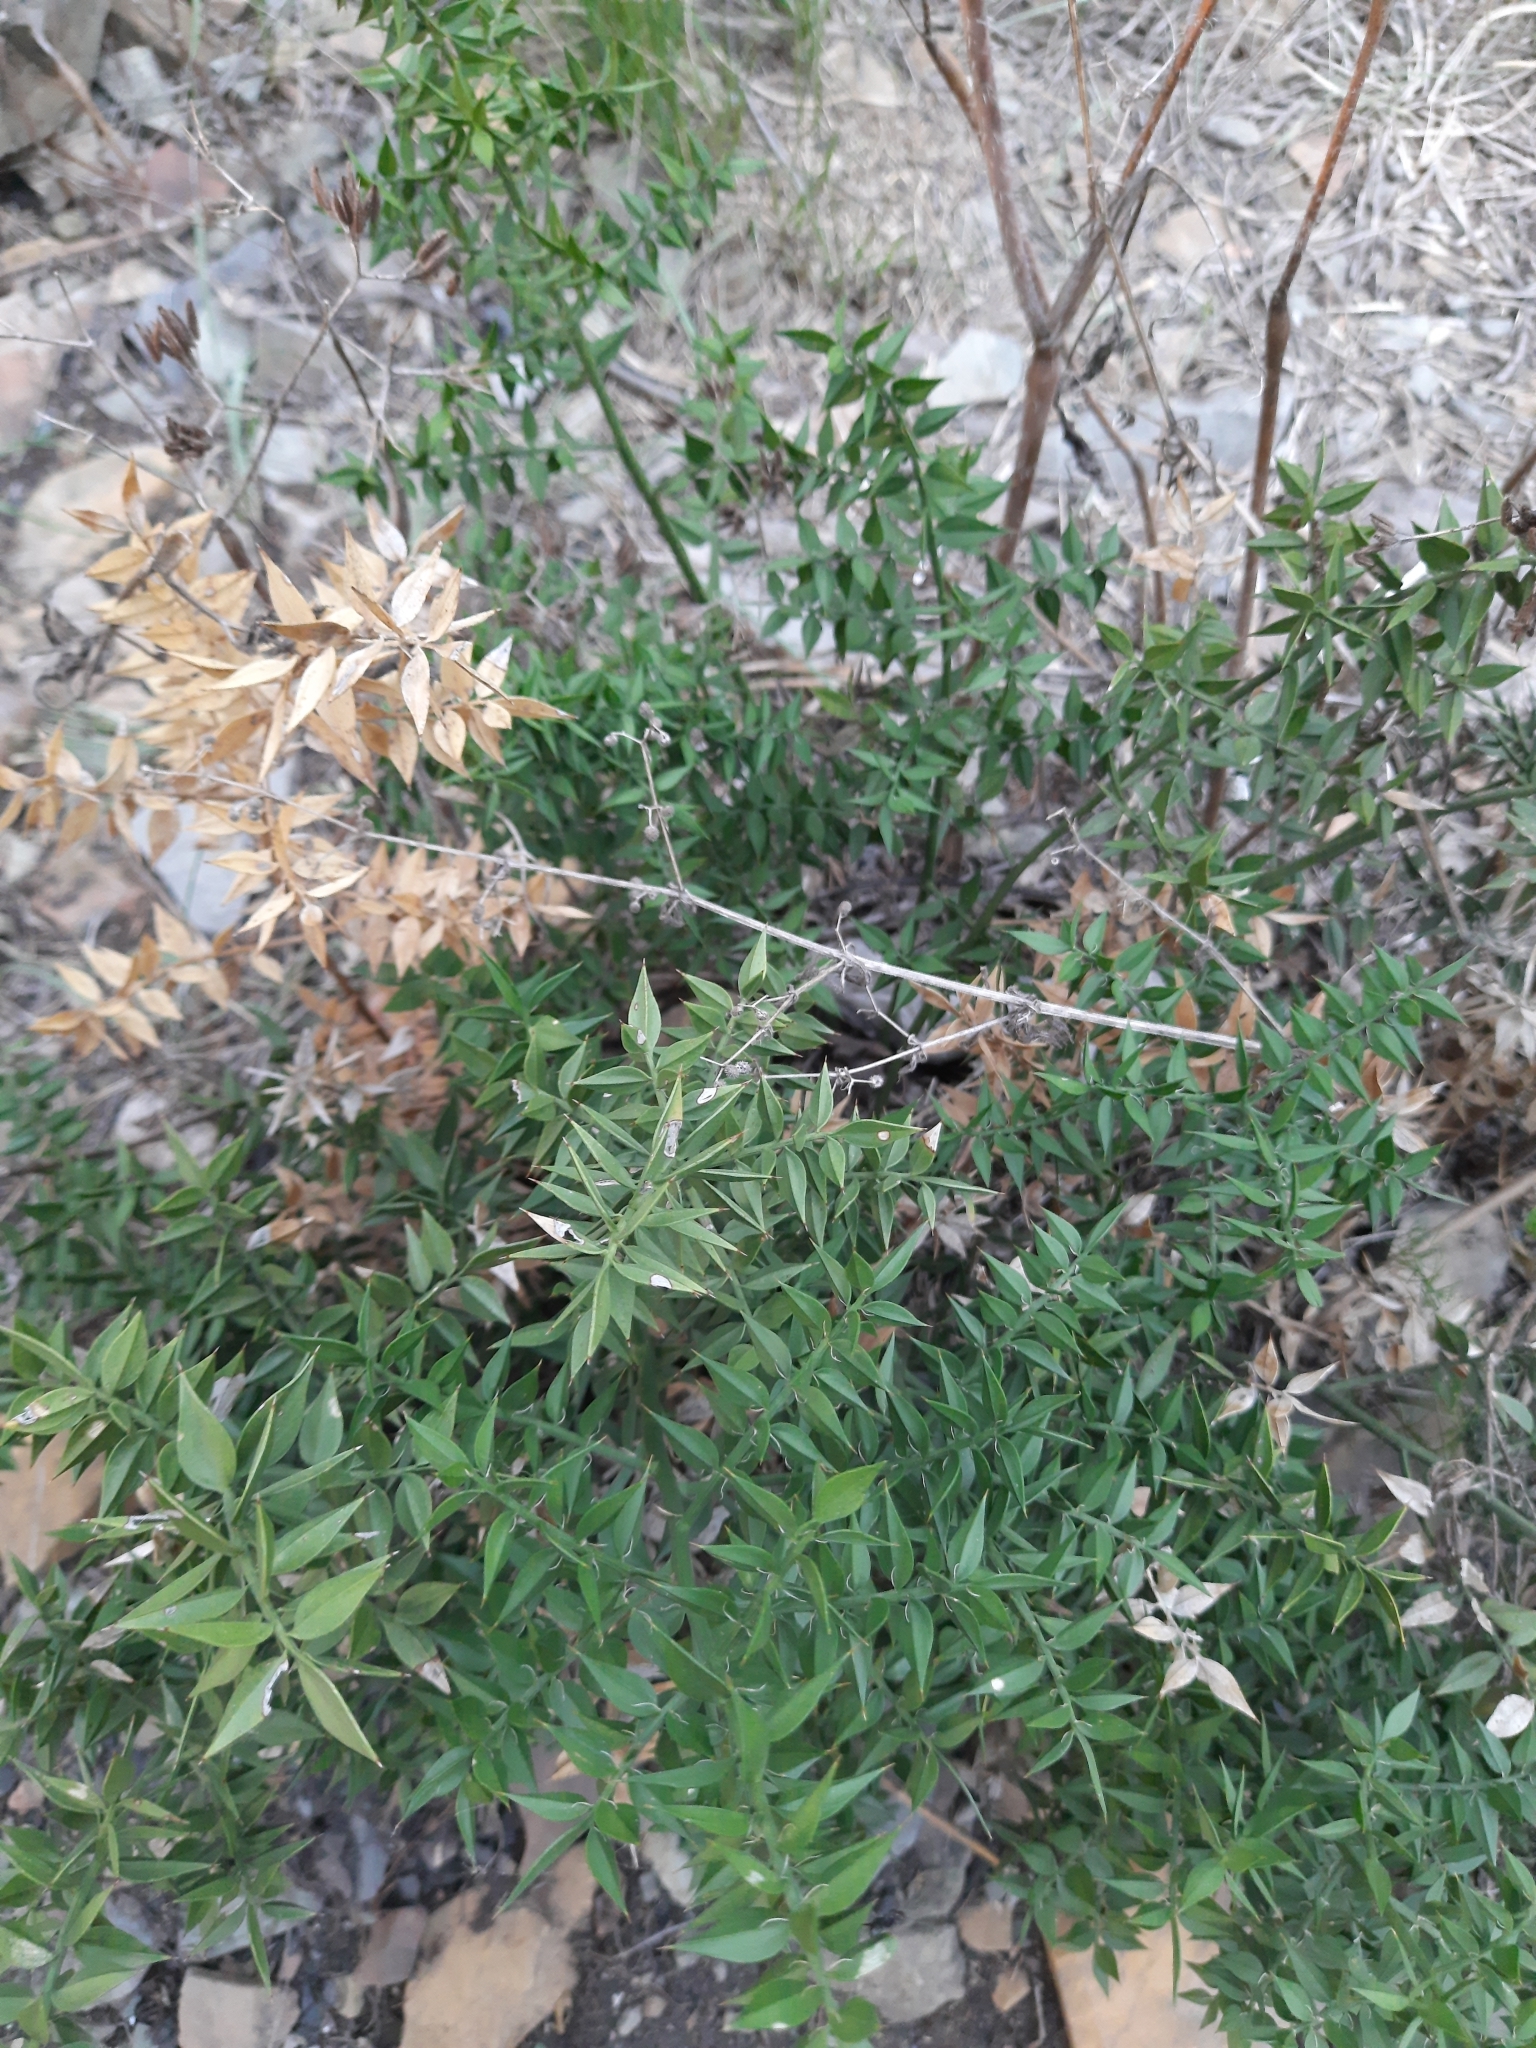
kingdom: Plantae
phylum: Tracheophyta
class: Liliopsida
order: Asparagales
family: Asparagaceae
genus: Ruscus
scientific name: Ruscus aculeatus
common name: Butcher's-broom
